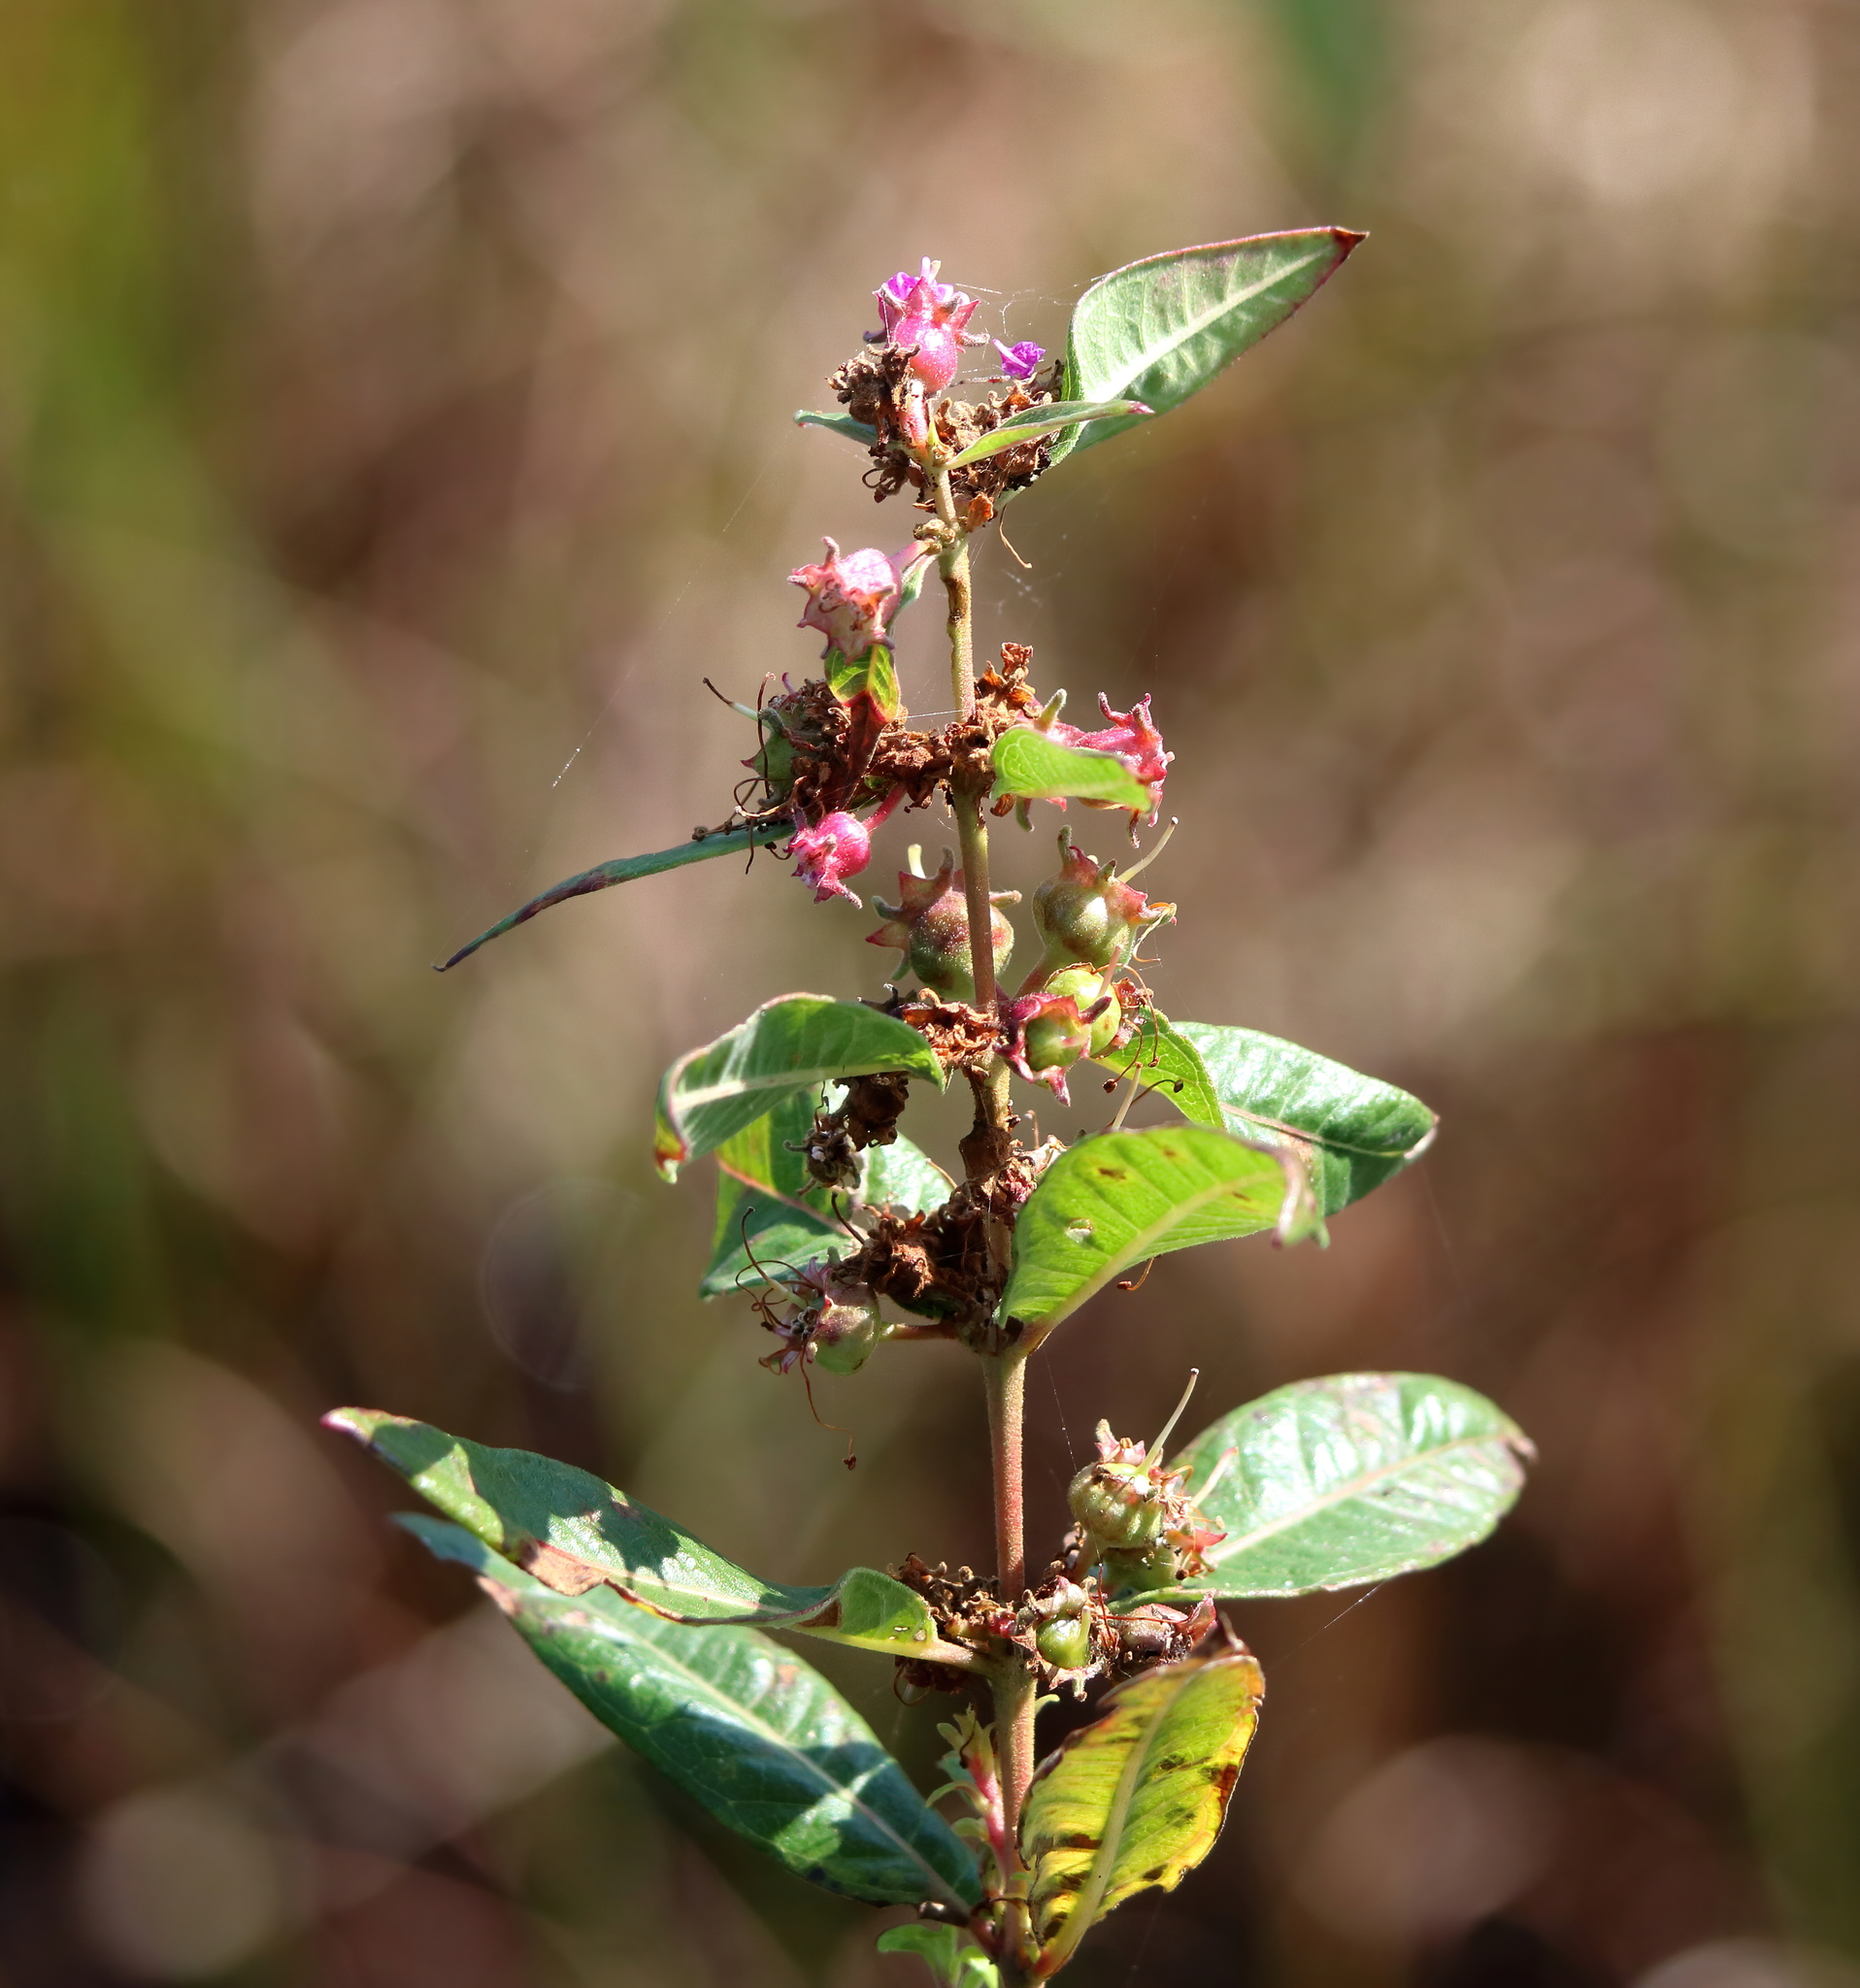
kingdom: Plantae
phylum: Tracheophyta
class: Magnoliopsida
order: Myrtales
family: Lythraceae
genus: Decodon
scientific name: Decodon verticillatus
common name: Hairy swamp loosestrife
